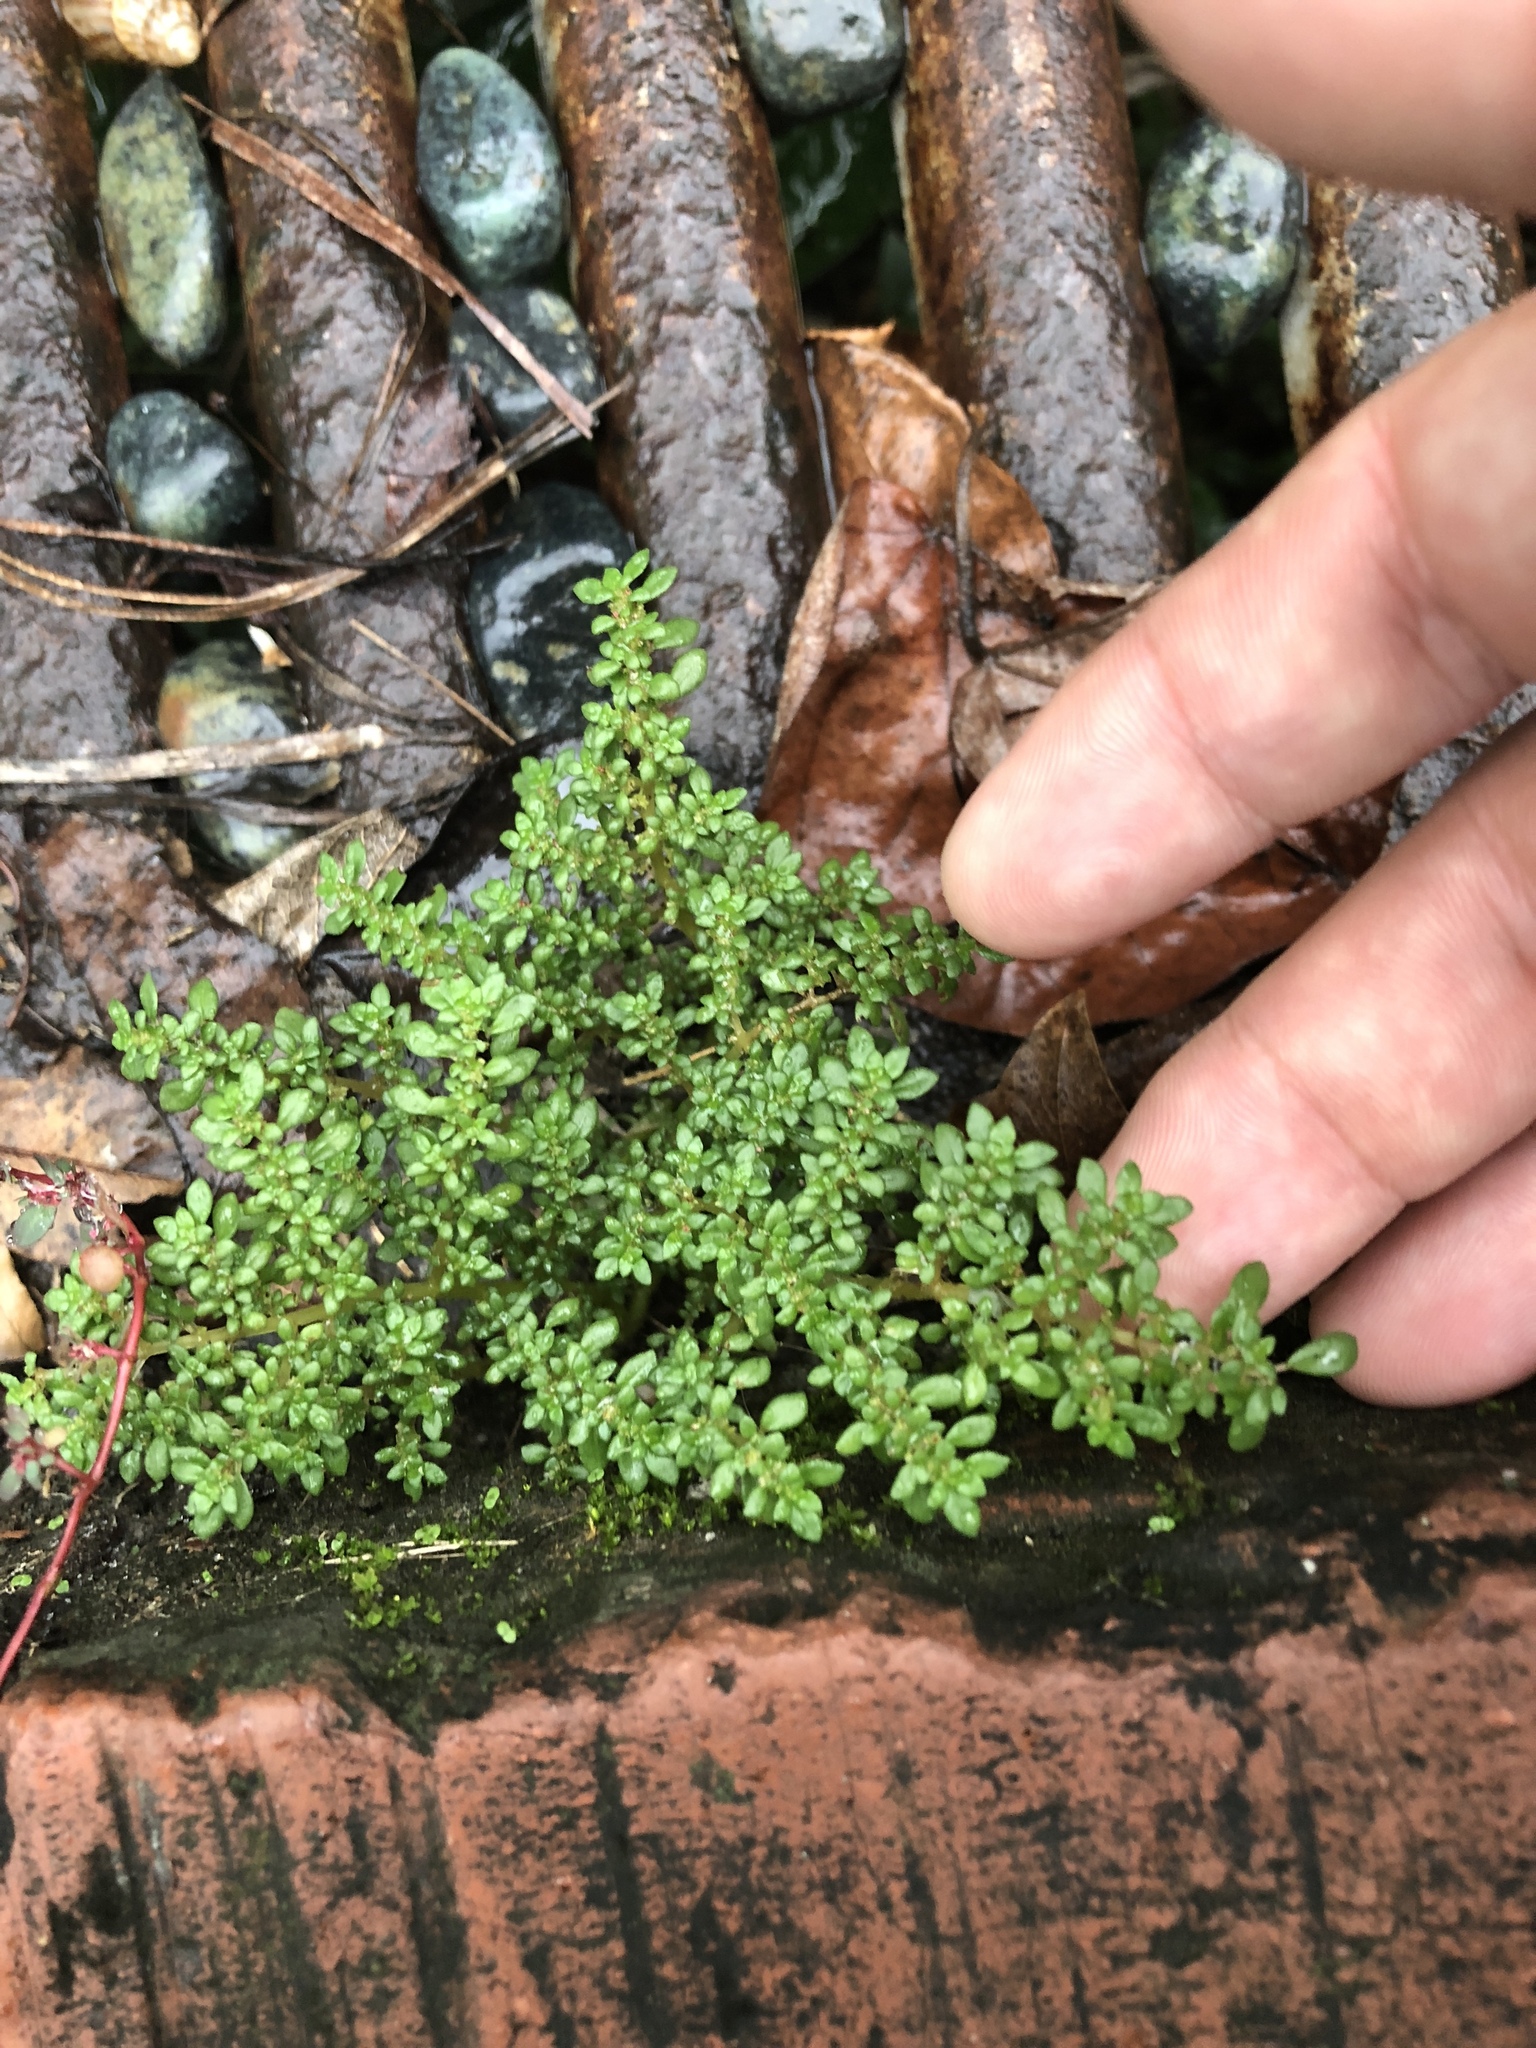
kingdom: Plantae
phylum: Tracheophyta
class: Magnoliopsida
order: Rosales
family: Urticaceae
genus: Pilea
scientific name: Pilea microphylla
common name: Artillery-plant
